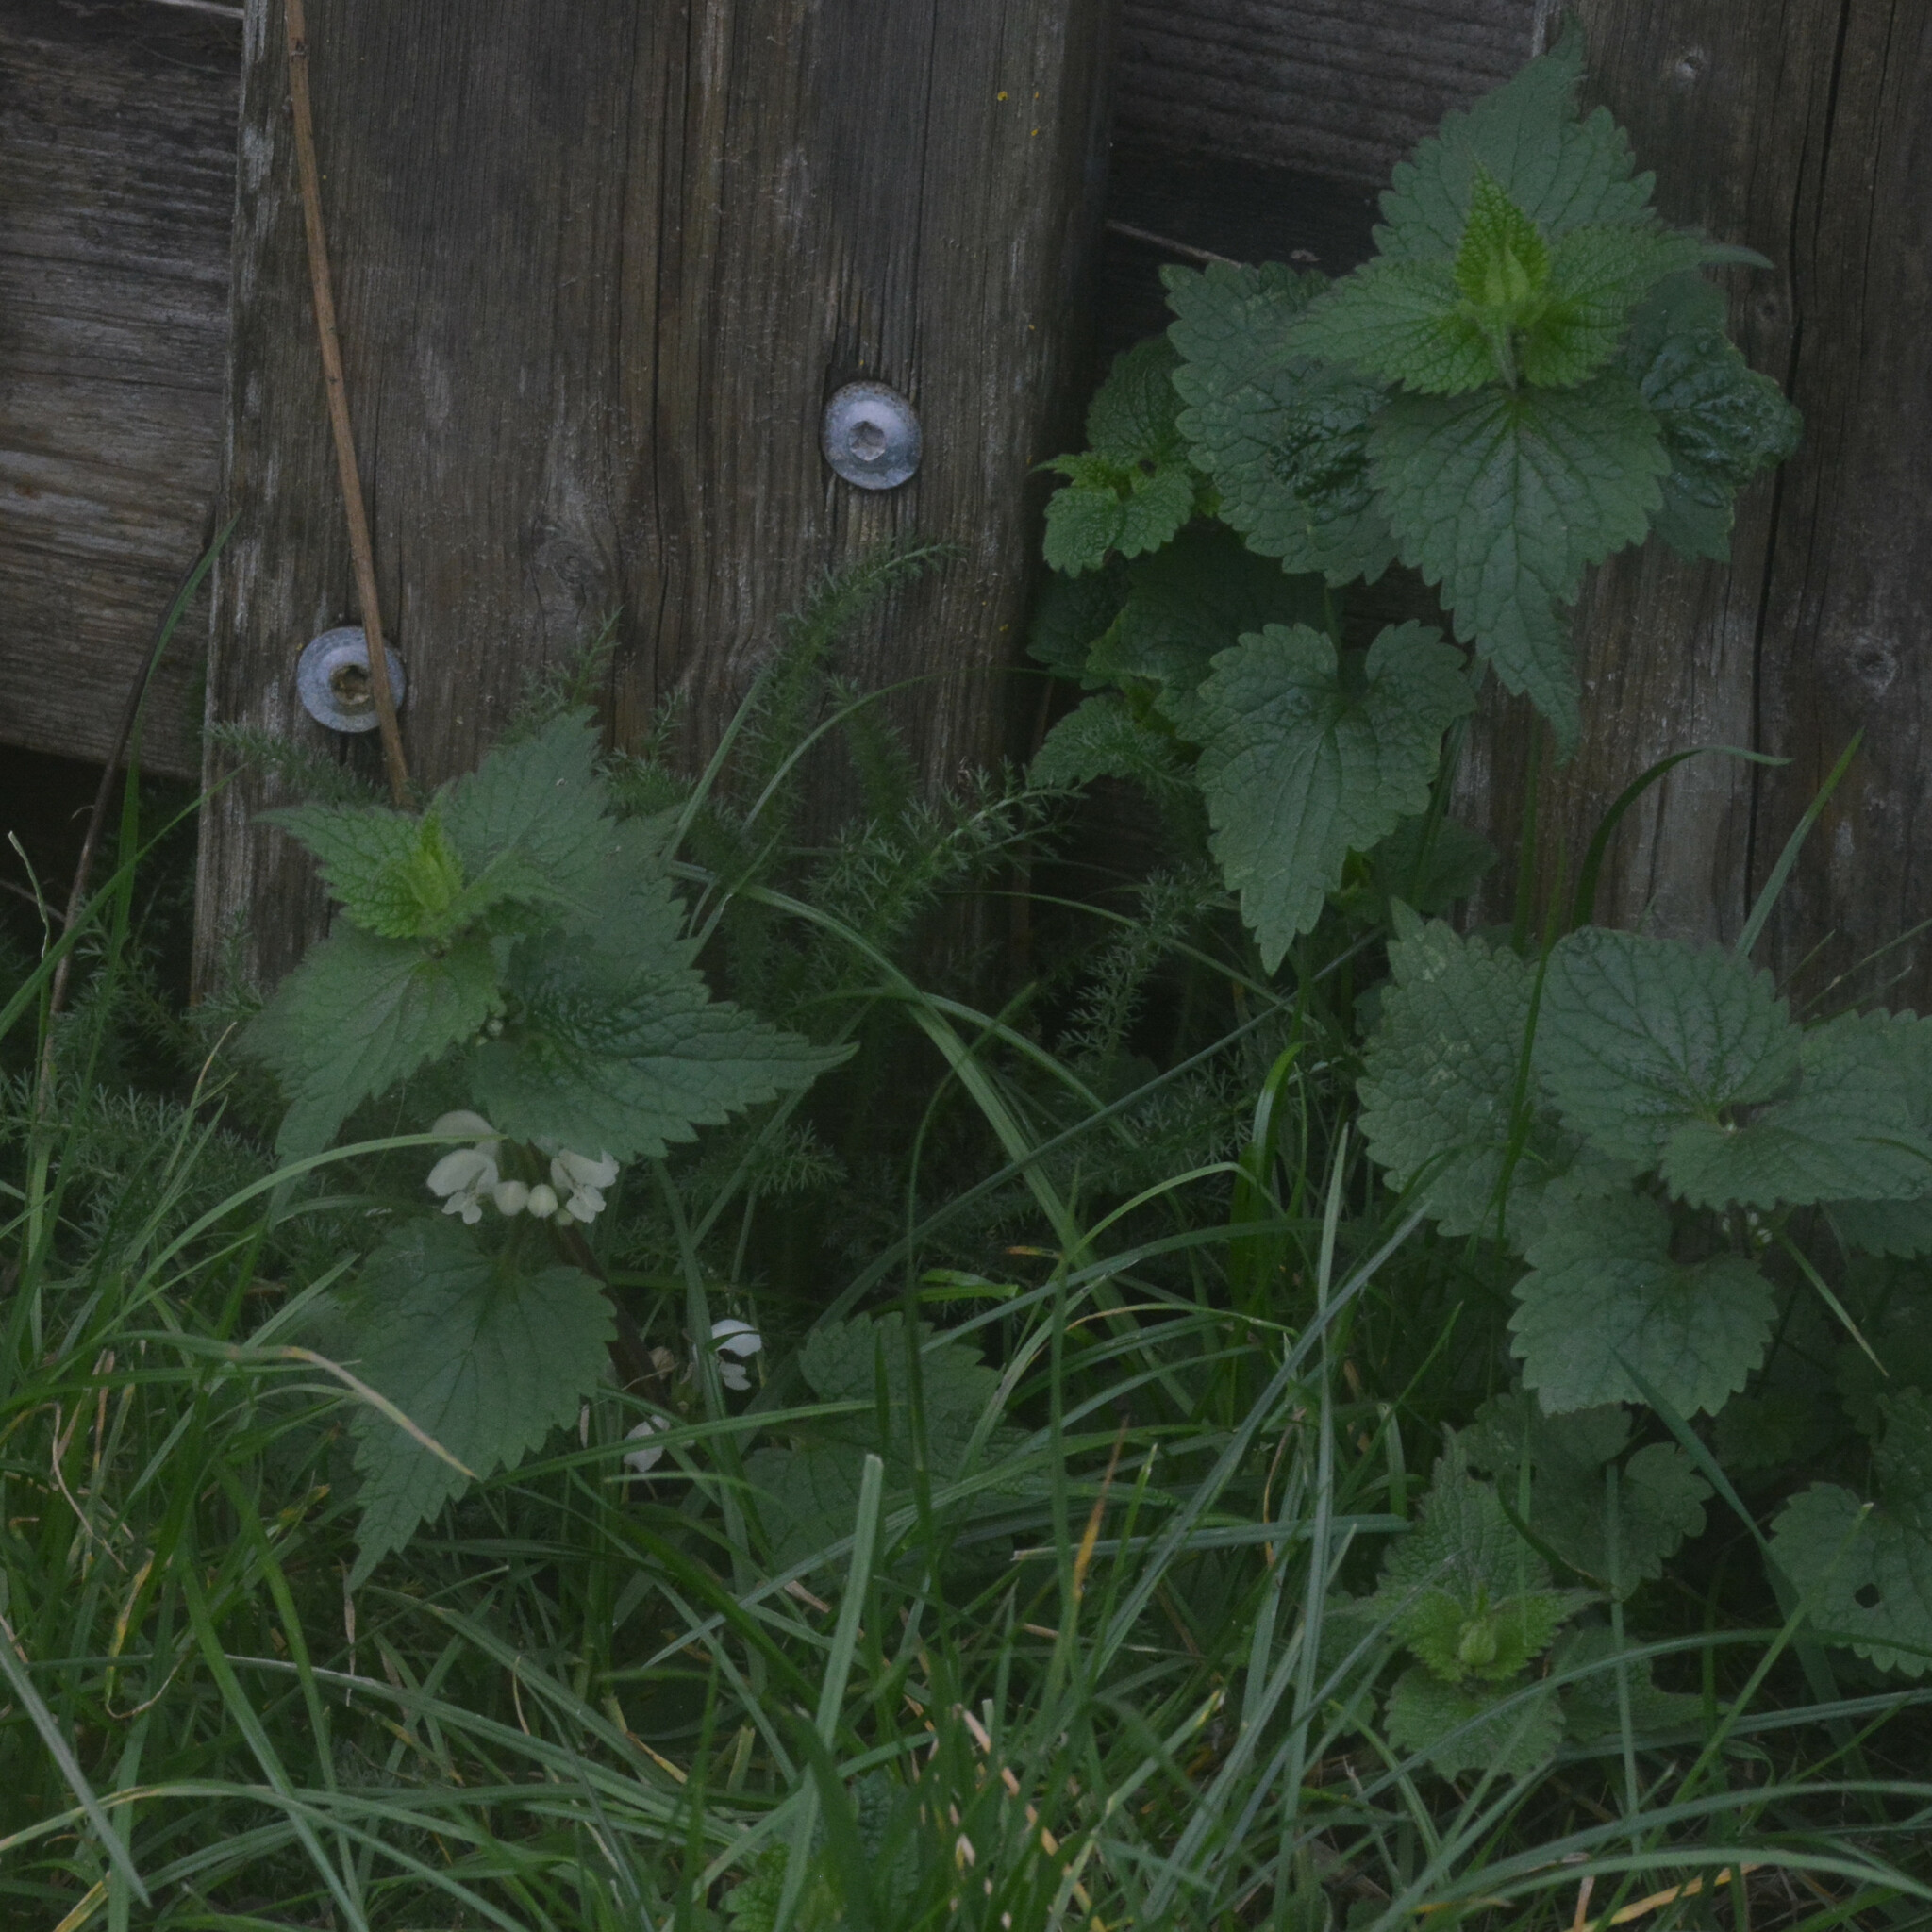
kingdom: Plantae
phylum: Tracheophyta
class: Magnoliopsida
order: Lamiales
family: Lamiaceae
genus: Lamium
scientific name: Lamium album
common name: White dead-nettle
